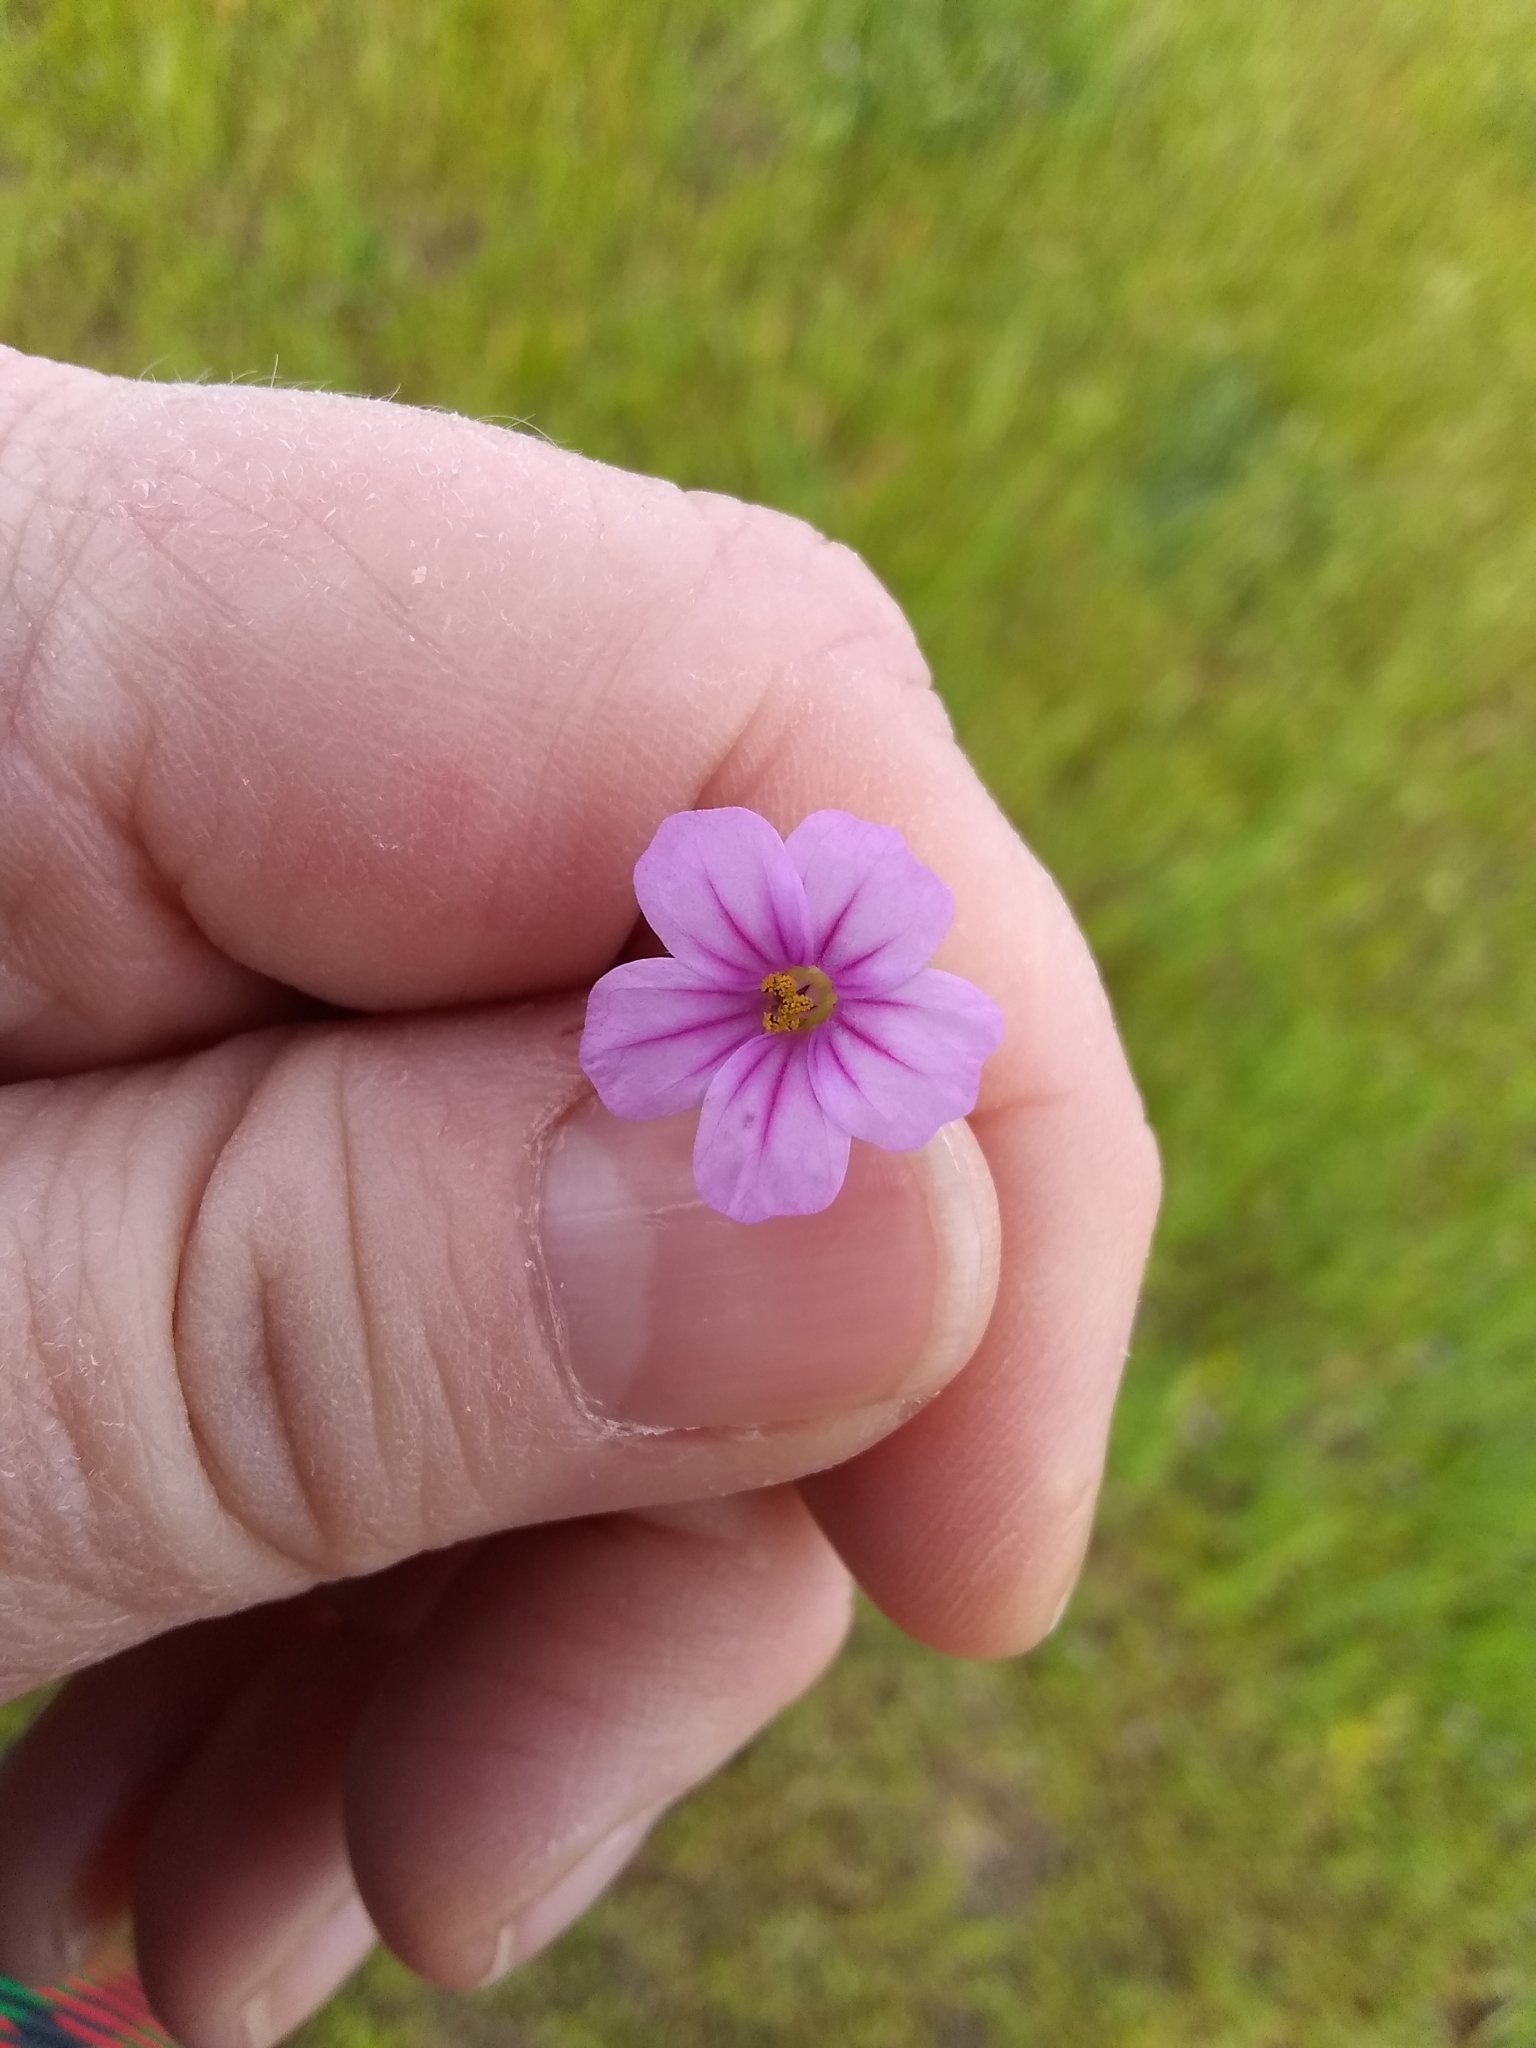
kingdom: Plantae
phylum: Tracheophyta
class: Magnoliopsida
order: Geraniales
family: Geraniaceae
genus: Erodium
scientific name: Erodium botrys
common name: Mediterranean stork's-bill
